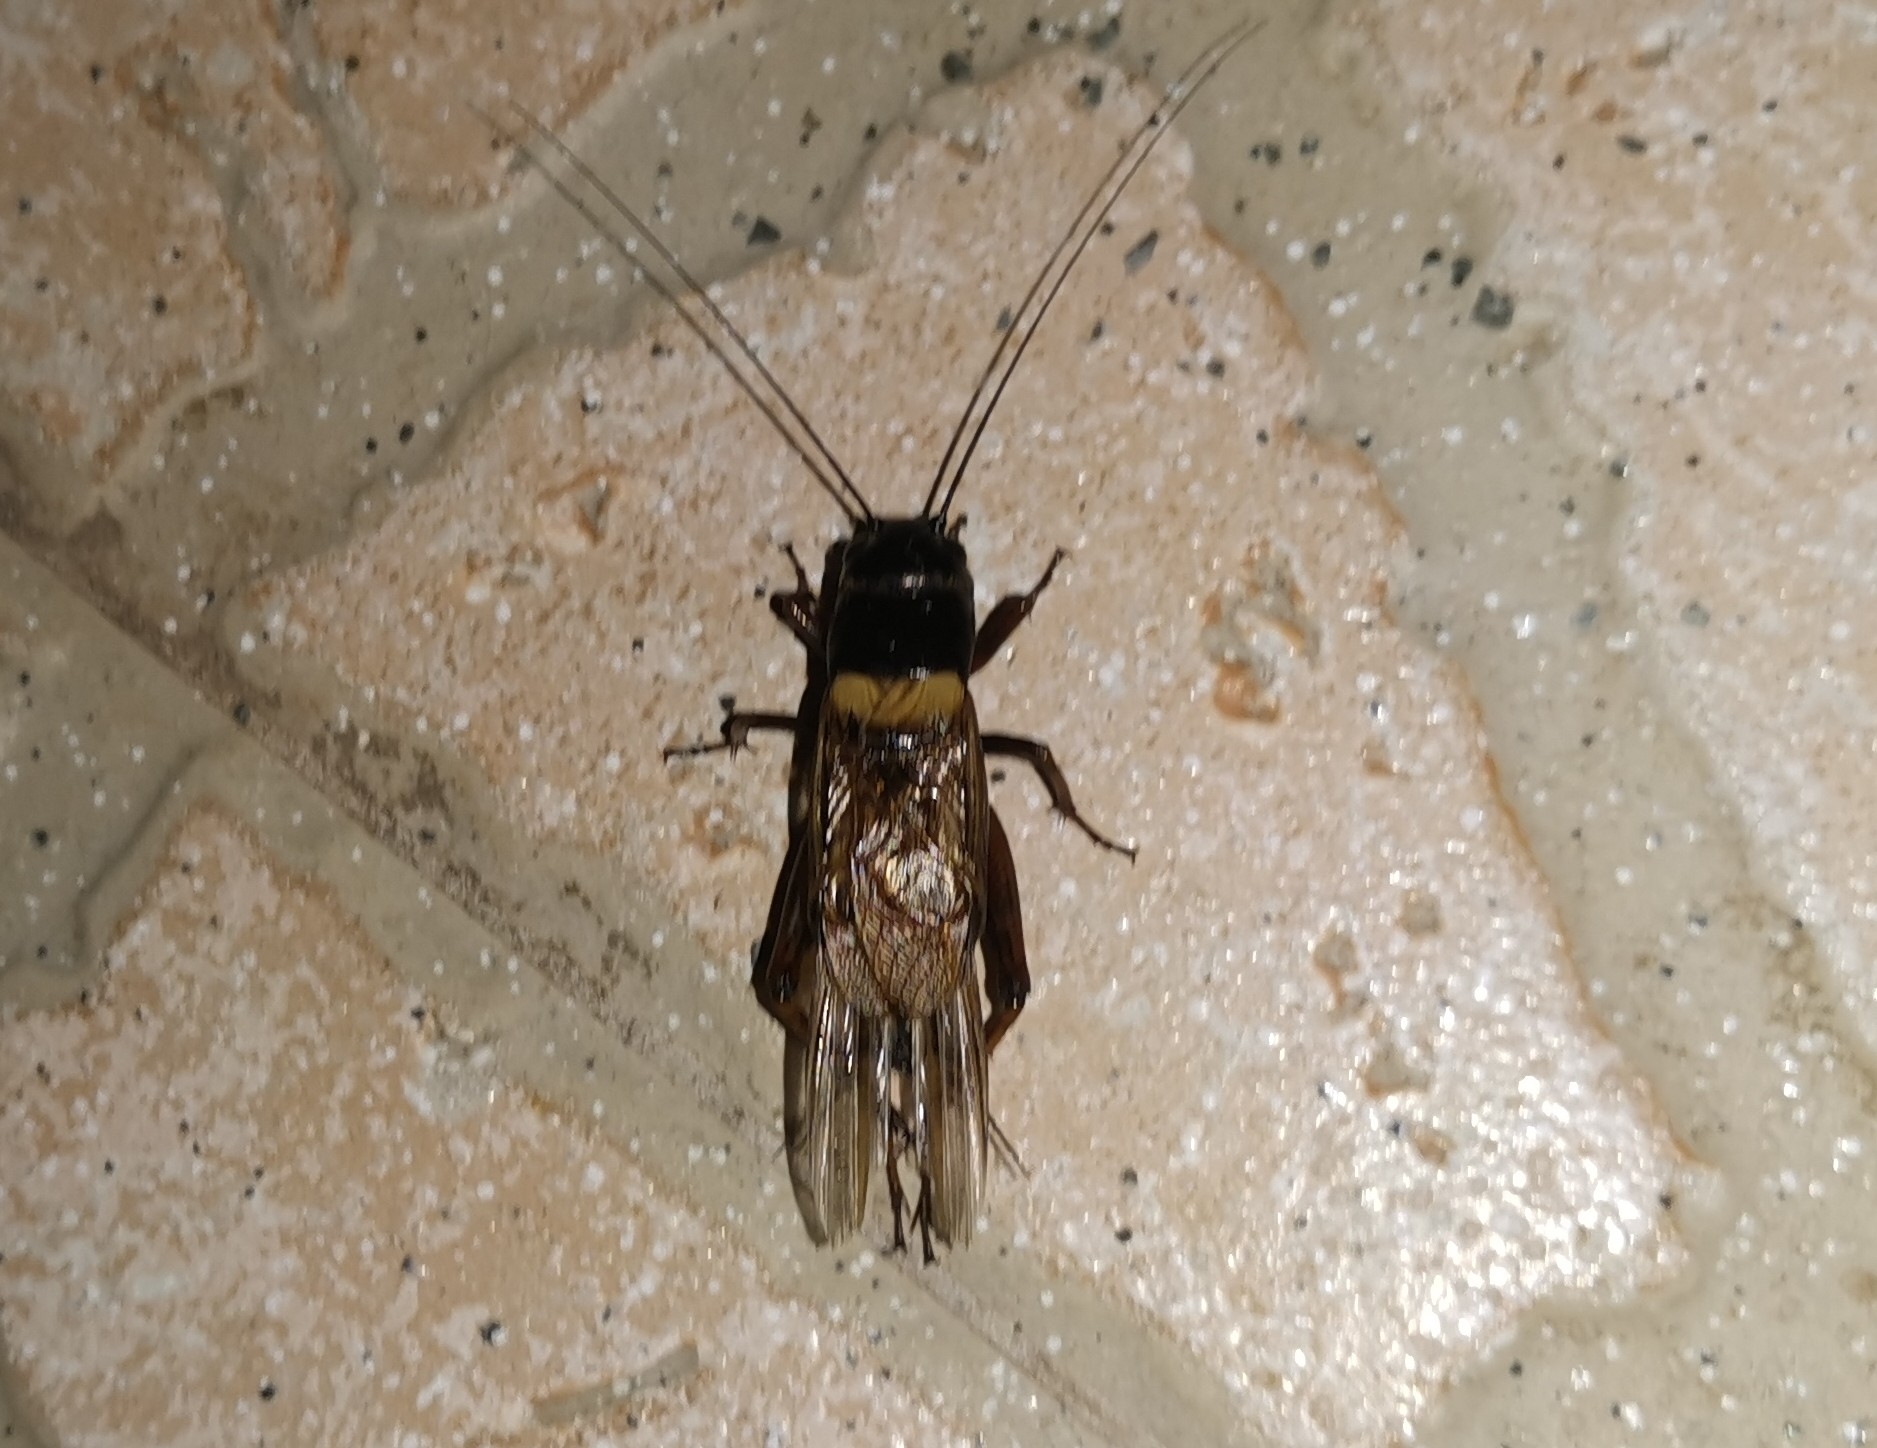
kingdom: Animalia
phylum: Arthropoda
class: Insecta
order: Orthoptera
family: Gryllidae
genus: Gryllus
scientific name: Gryllus bimaculatus
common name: Two-spotted cricket
